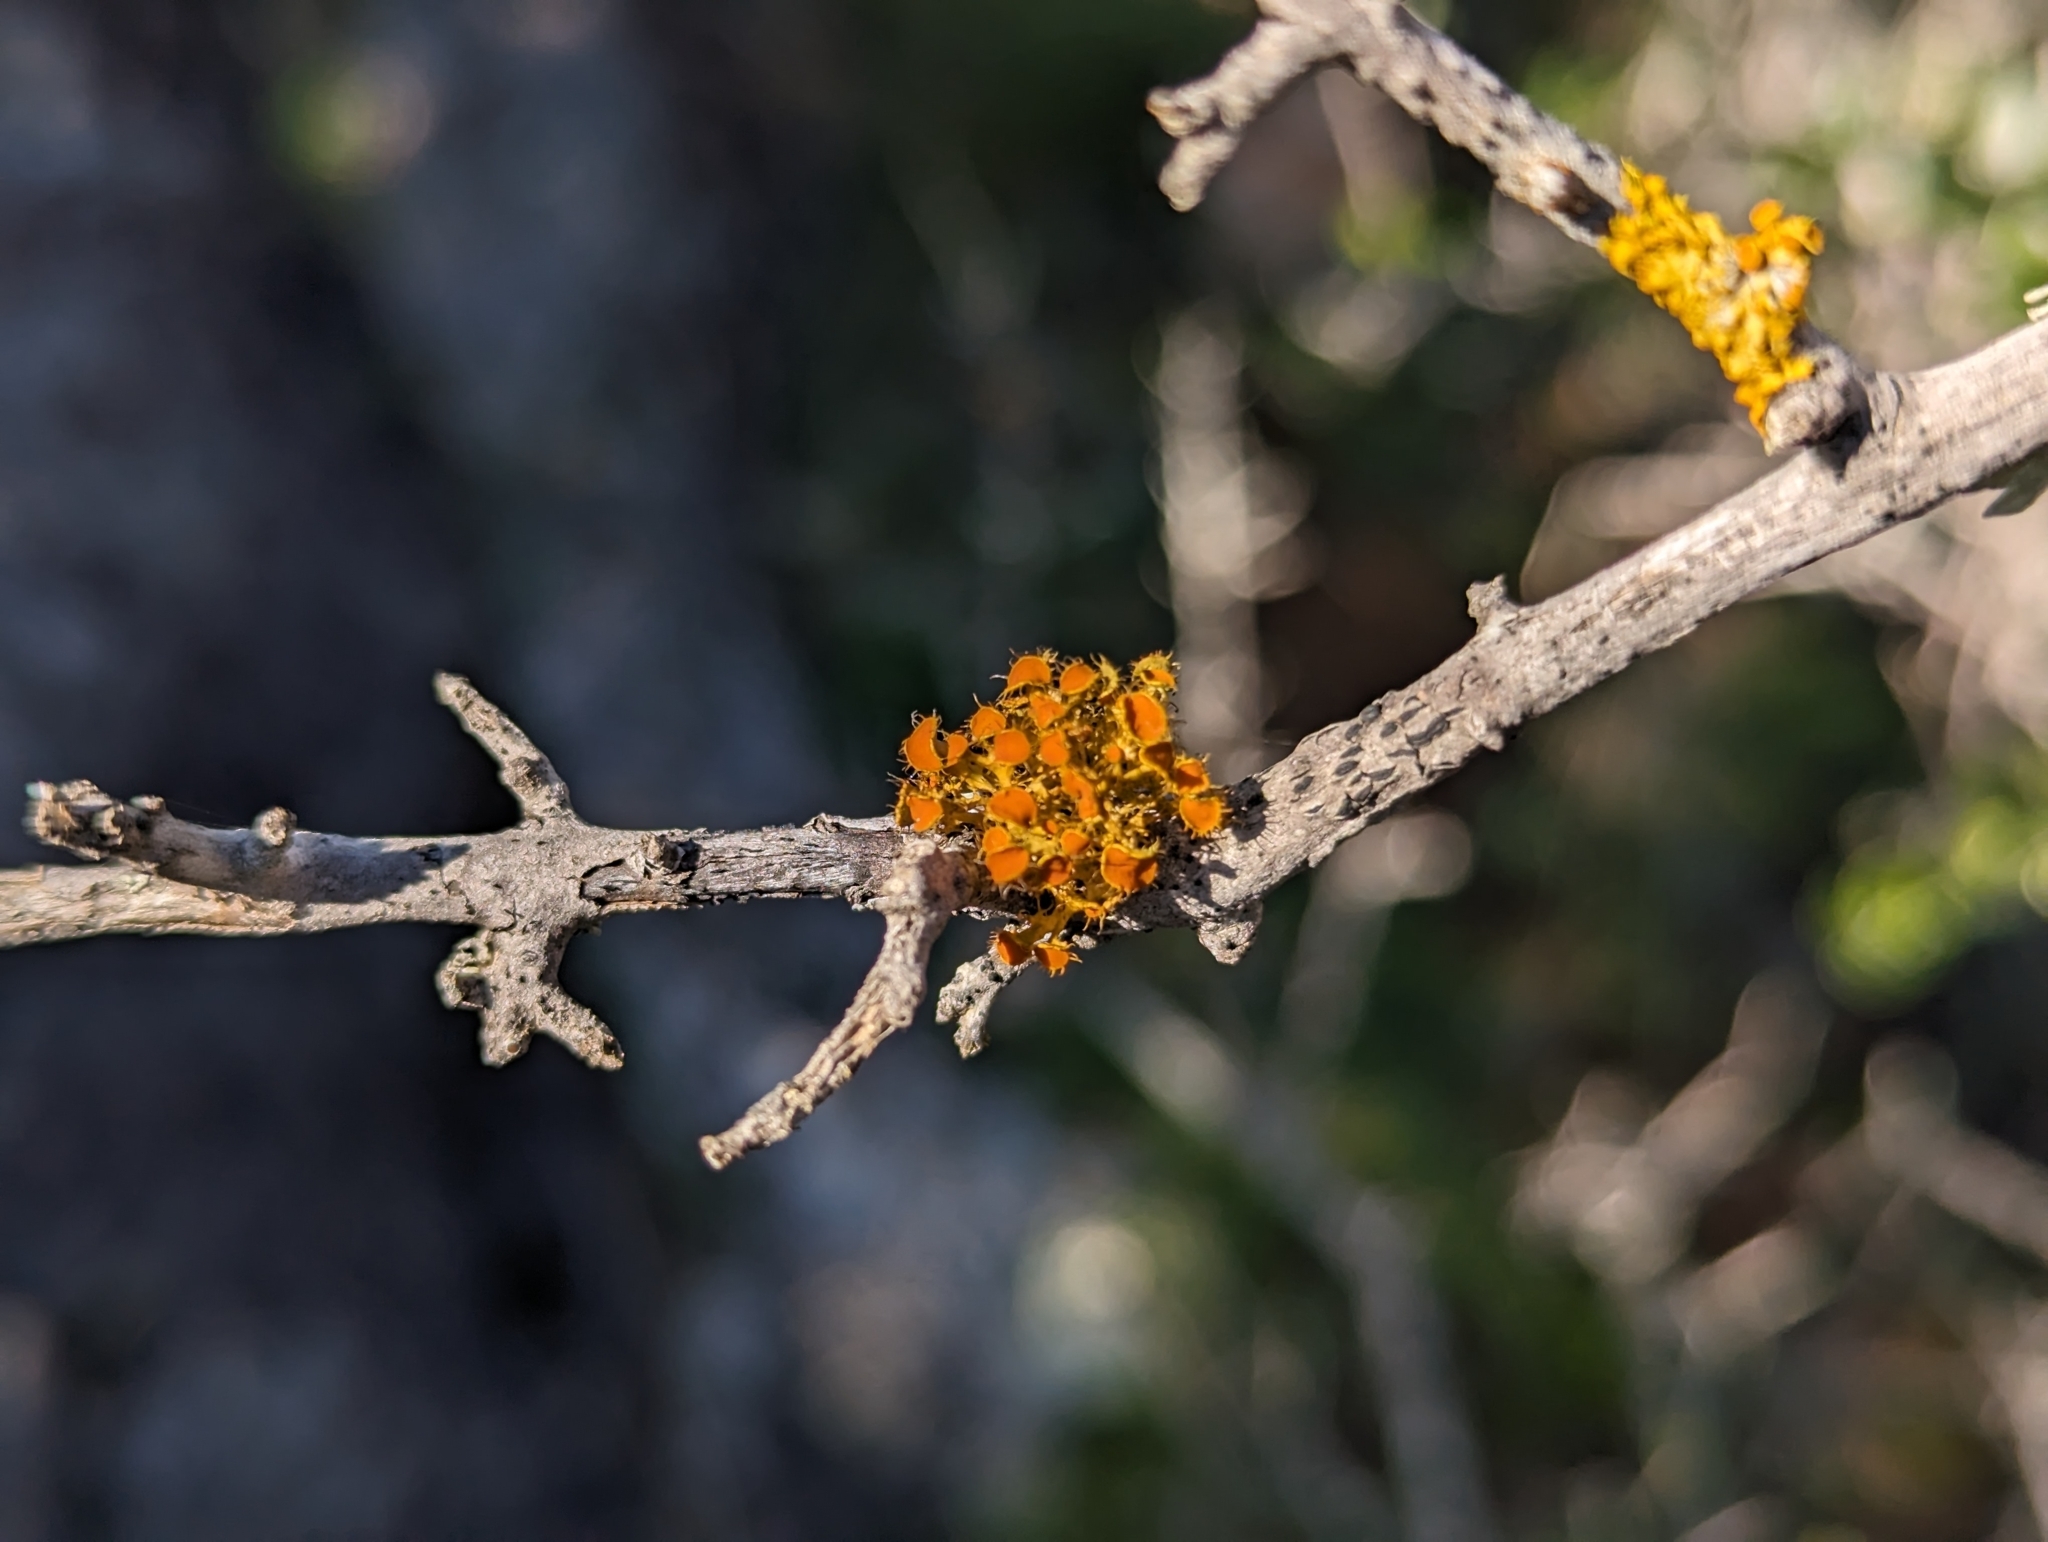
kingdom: Fungi
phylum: Ascomycota
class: Lecanoromycetes
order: Teloschistales
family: Teloschistaceae
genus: Niorma
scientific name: Niorma chrysophthalma
